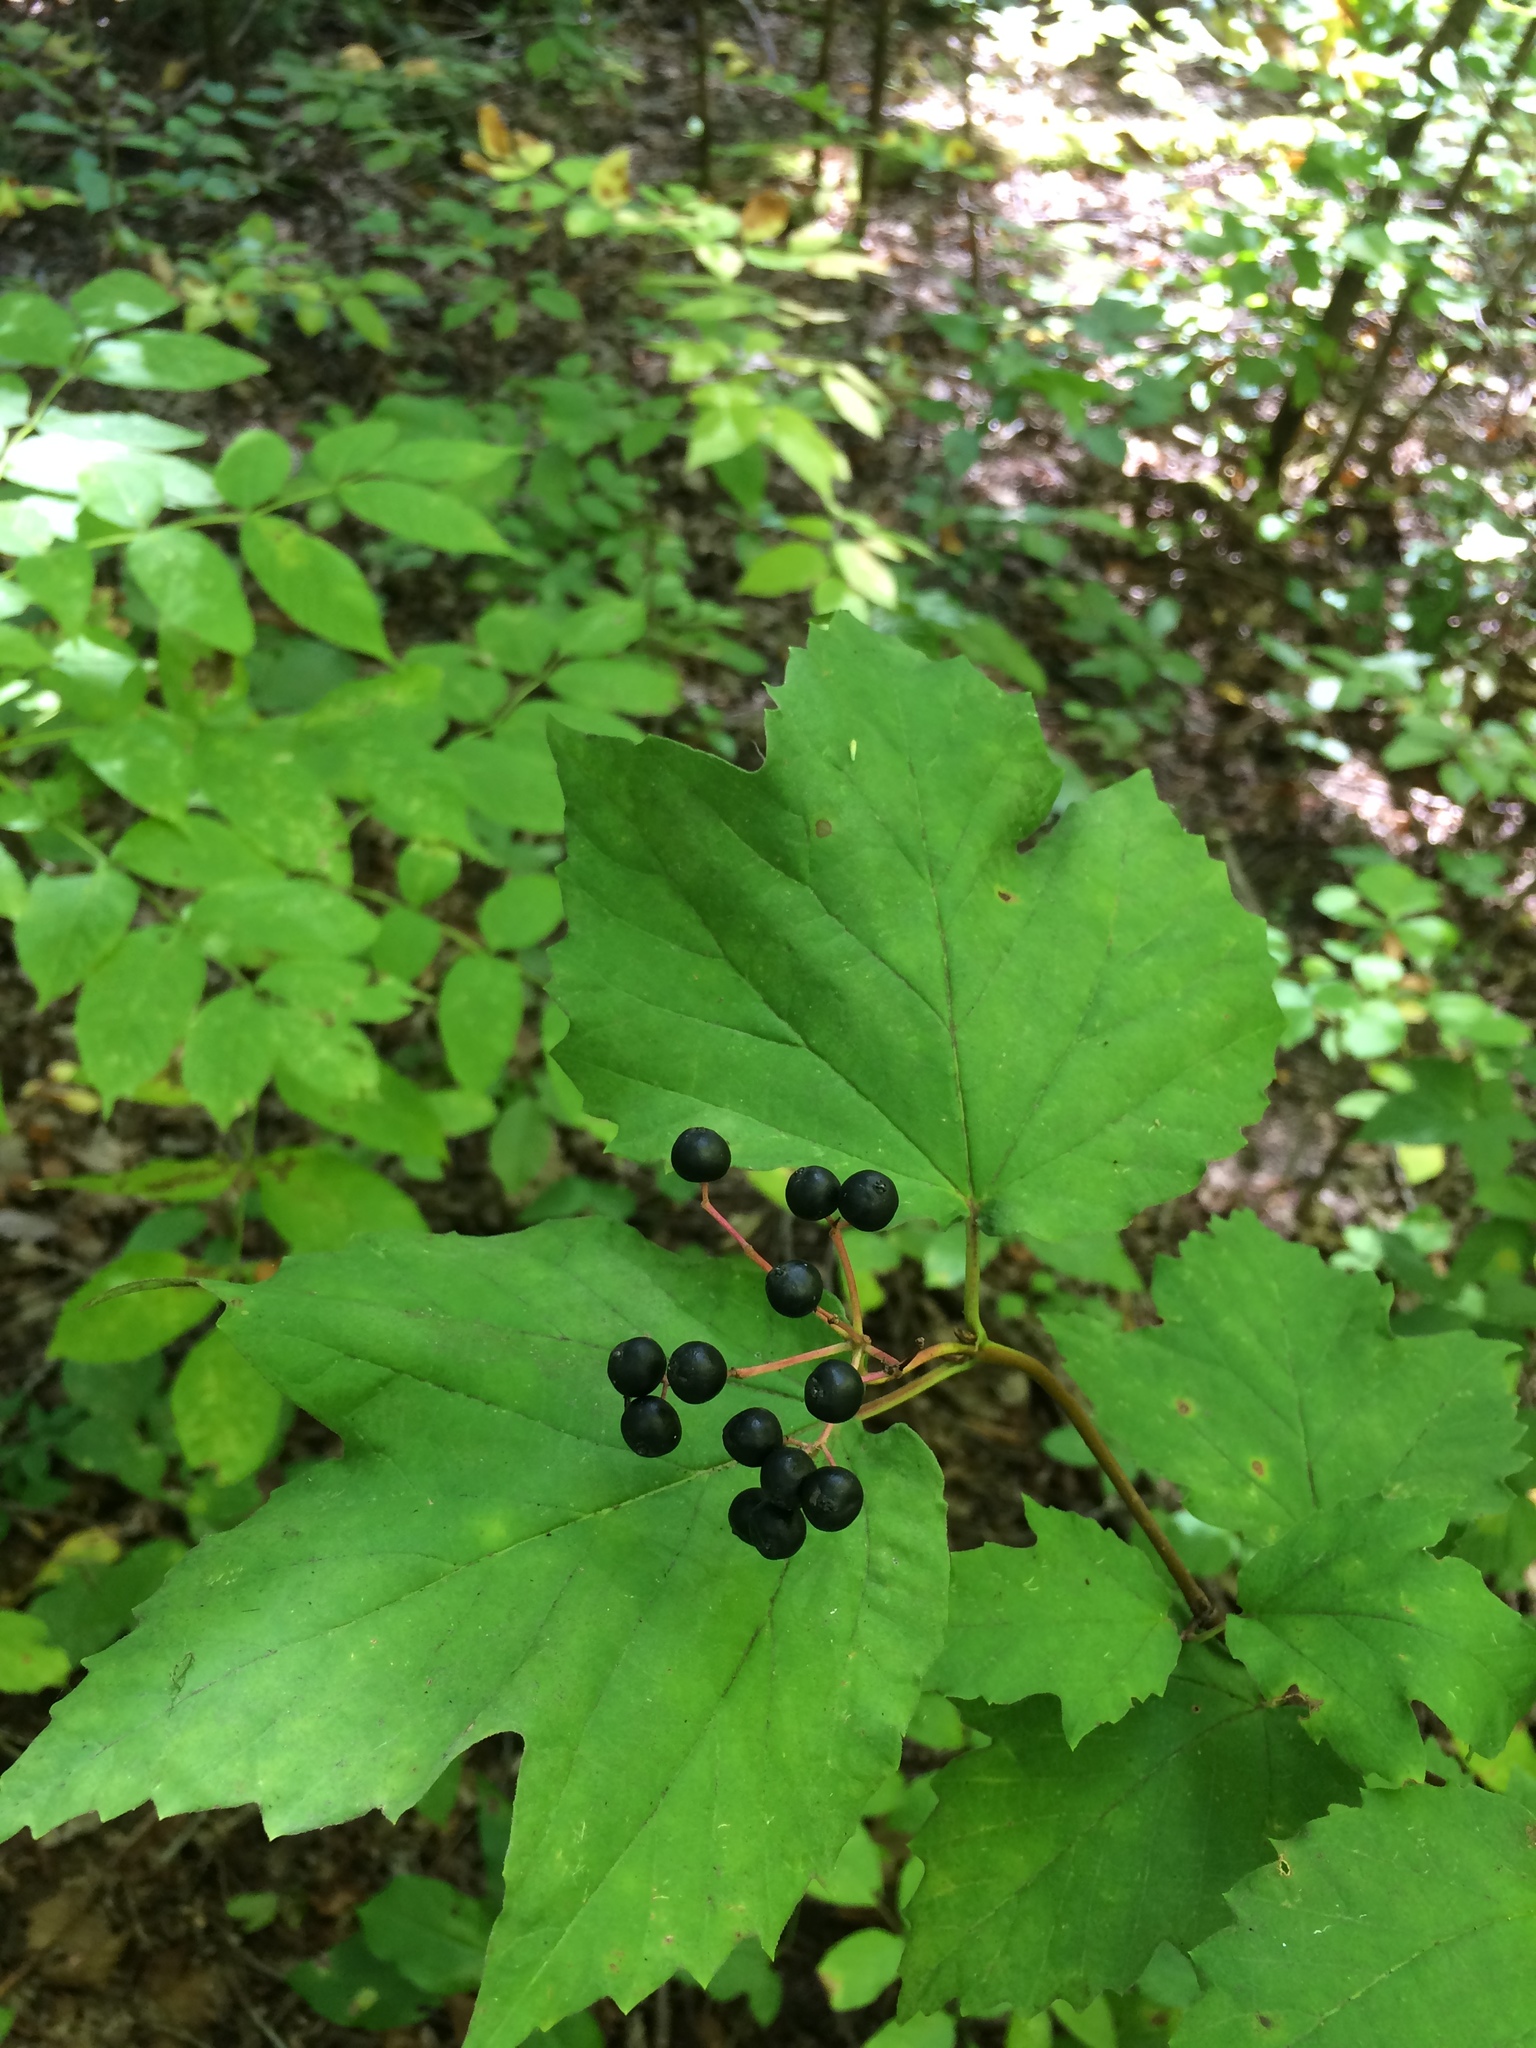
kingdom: Plantae
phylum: Tracheophyta
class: Magnoliopsida
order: Dipsacales
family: Viburnaceae
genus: Viburnum
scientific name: Viburnum acerifolium
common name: Dockmackie
